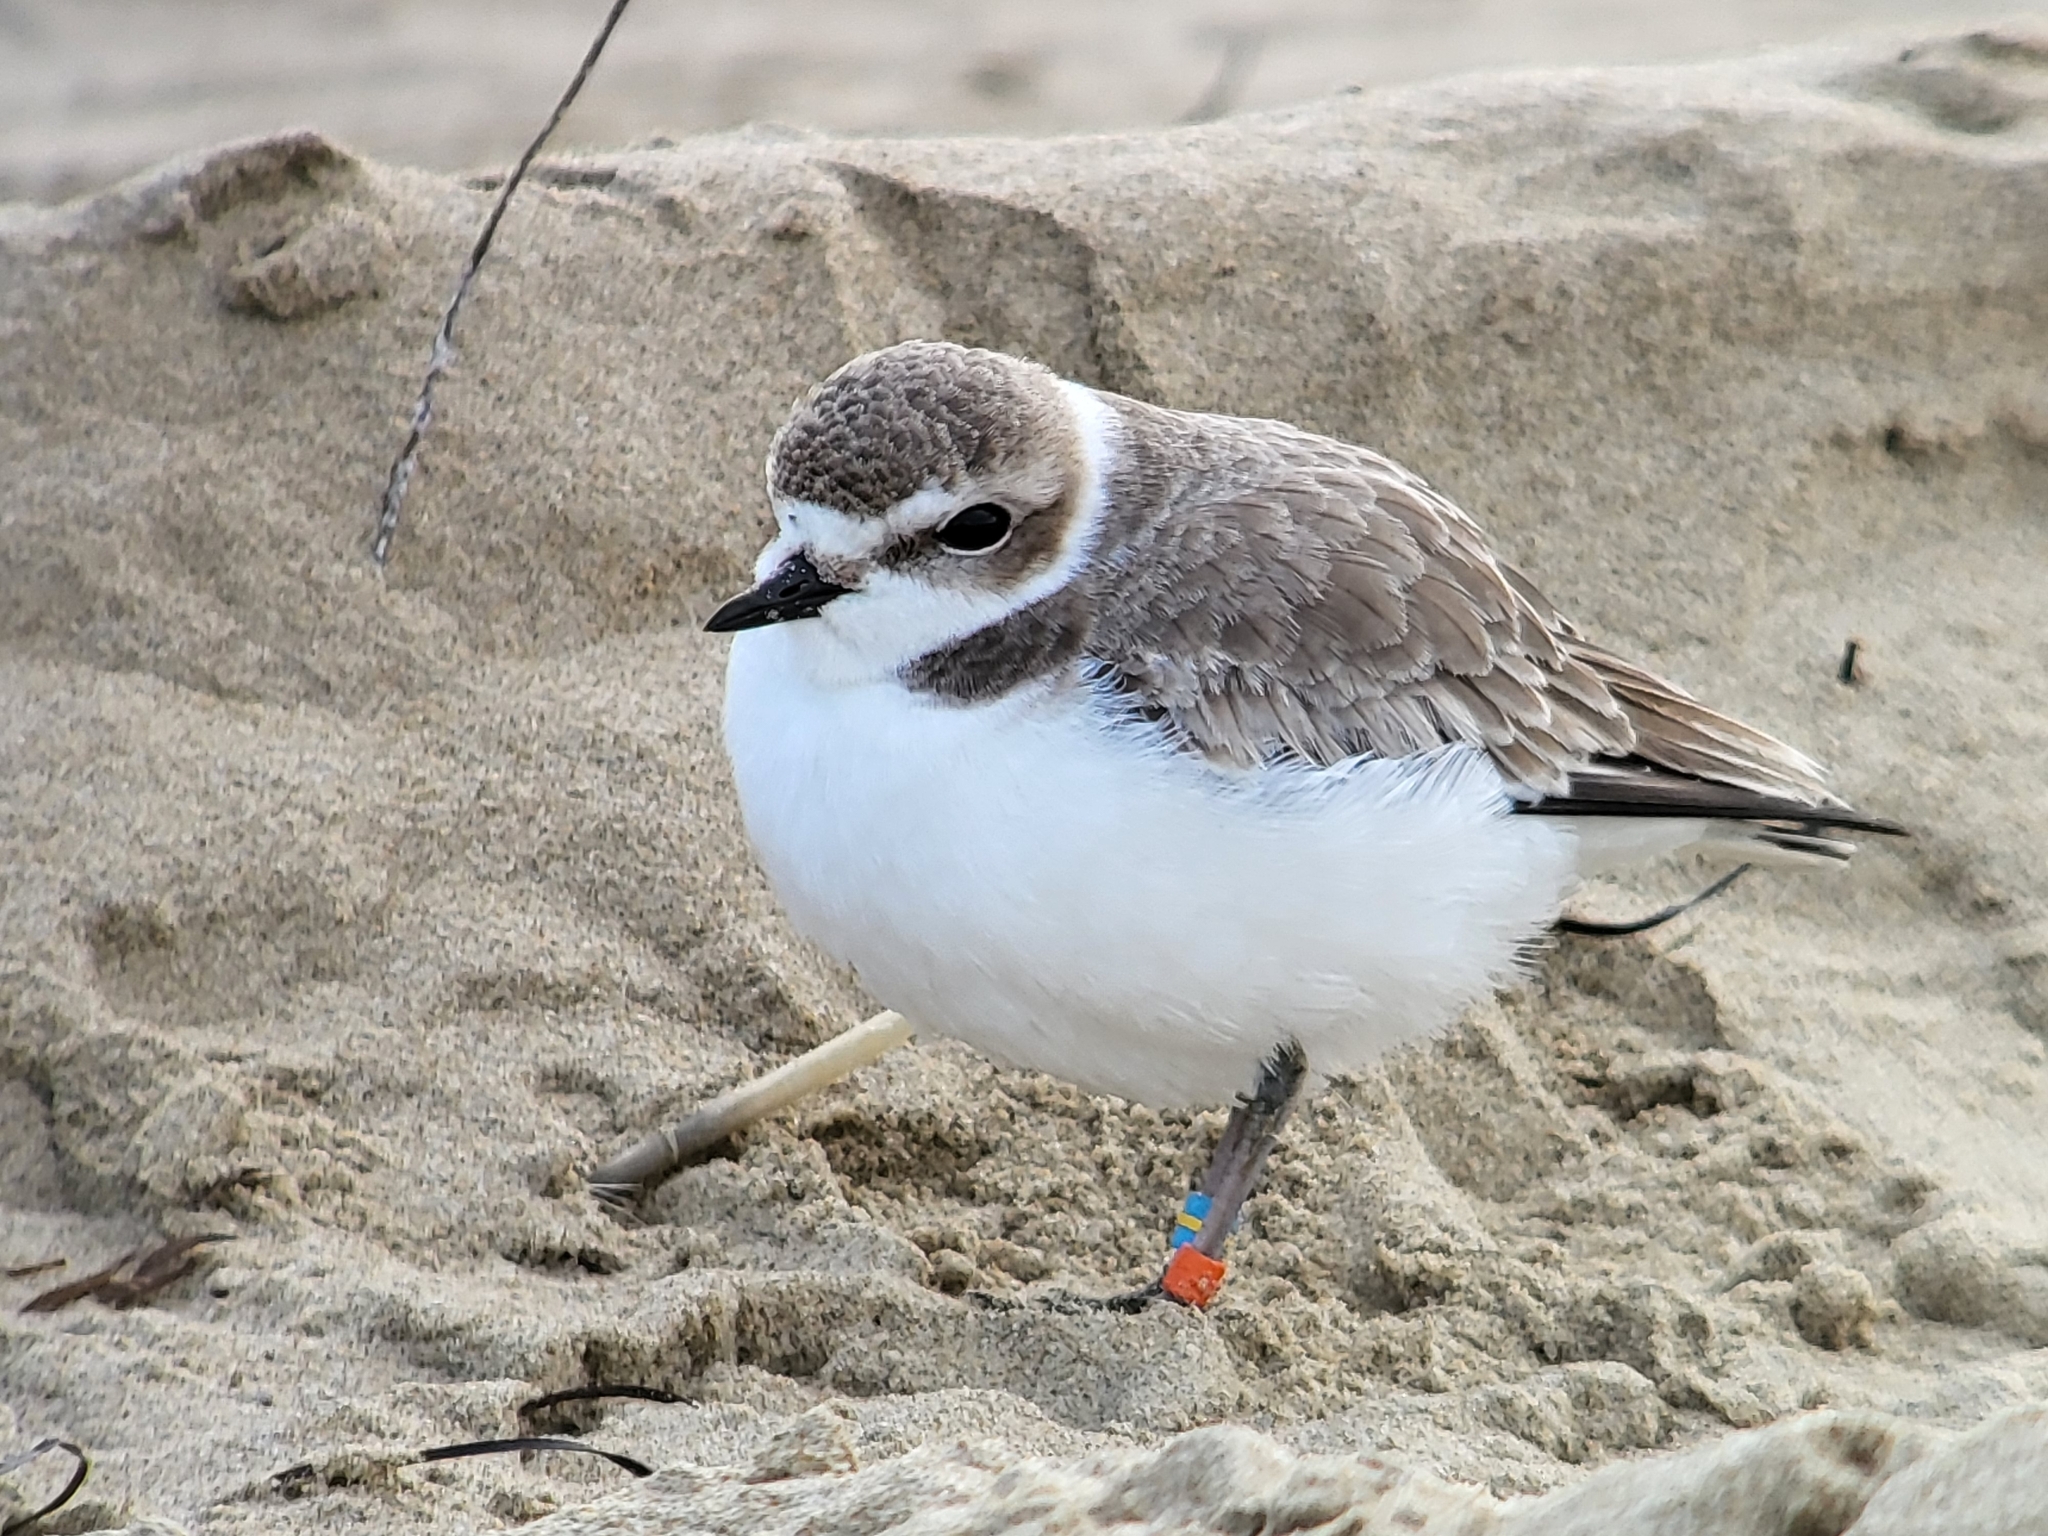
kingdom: Animalia
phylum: Chordata
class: Aves
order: Charadriiformes
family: Charadriidae
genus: Anarhynchus
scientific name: Anarhynchus
